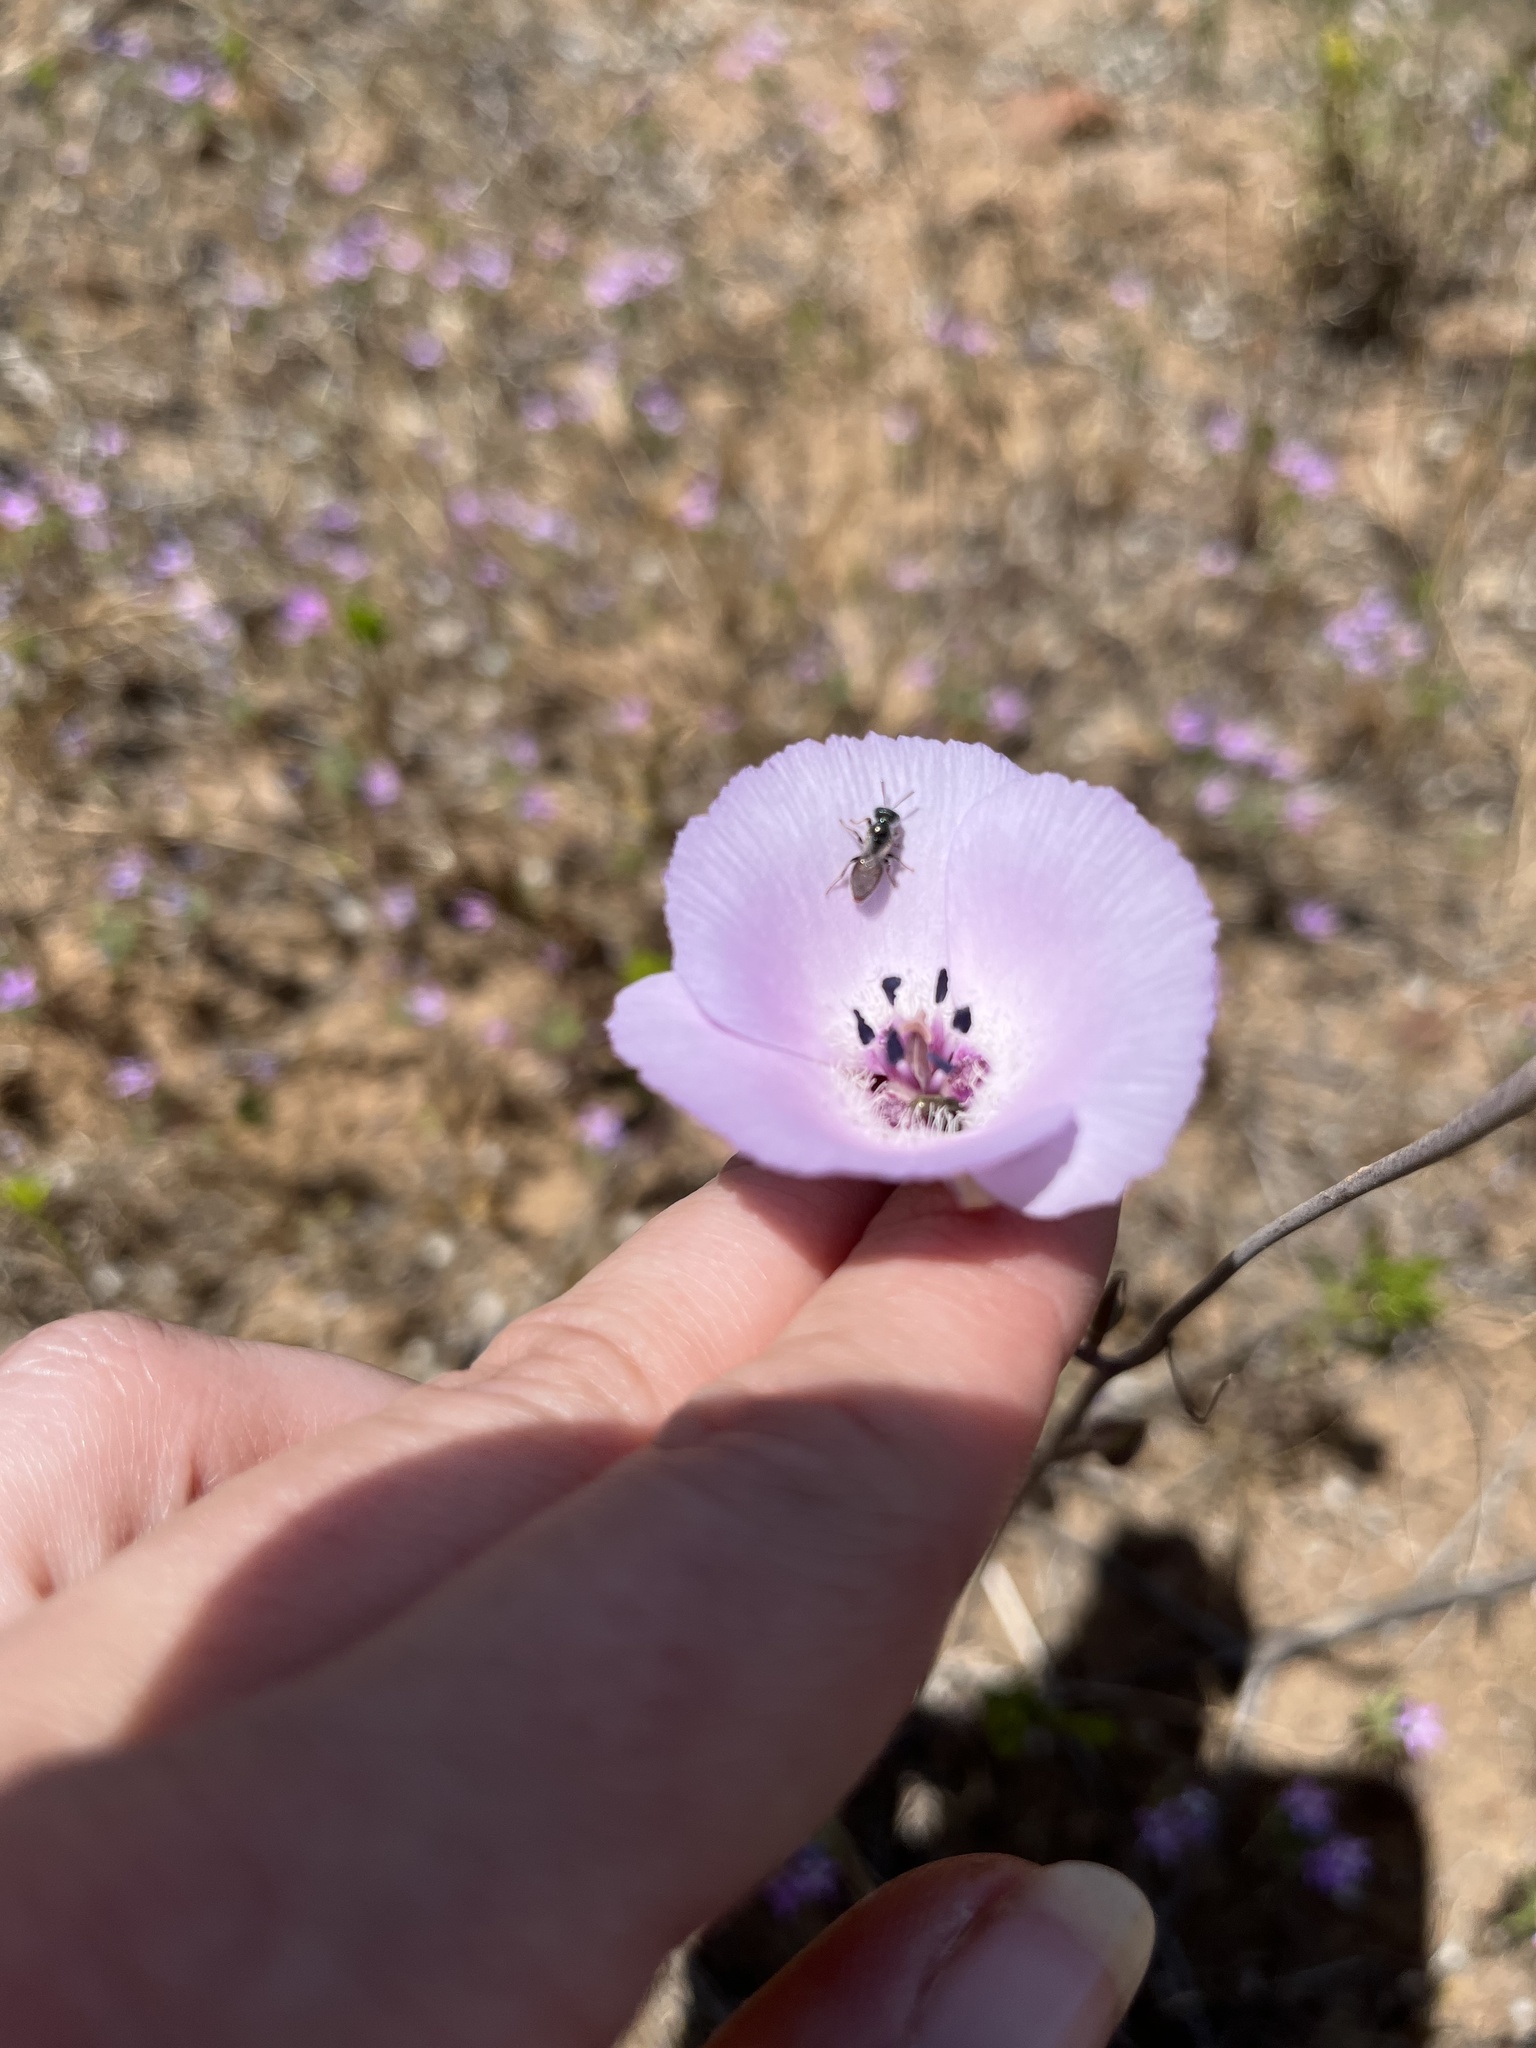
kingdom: Animalia
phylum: Arthropoda
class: Insecta
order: Hymenoptera
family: Andrenidae
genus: Perdita
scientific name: Perdita californica
